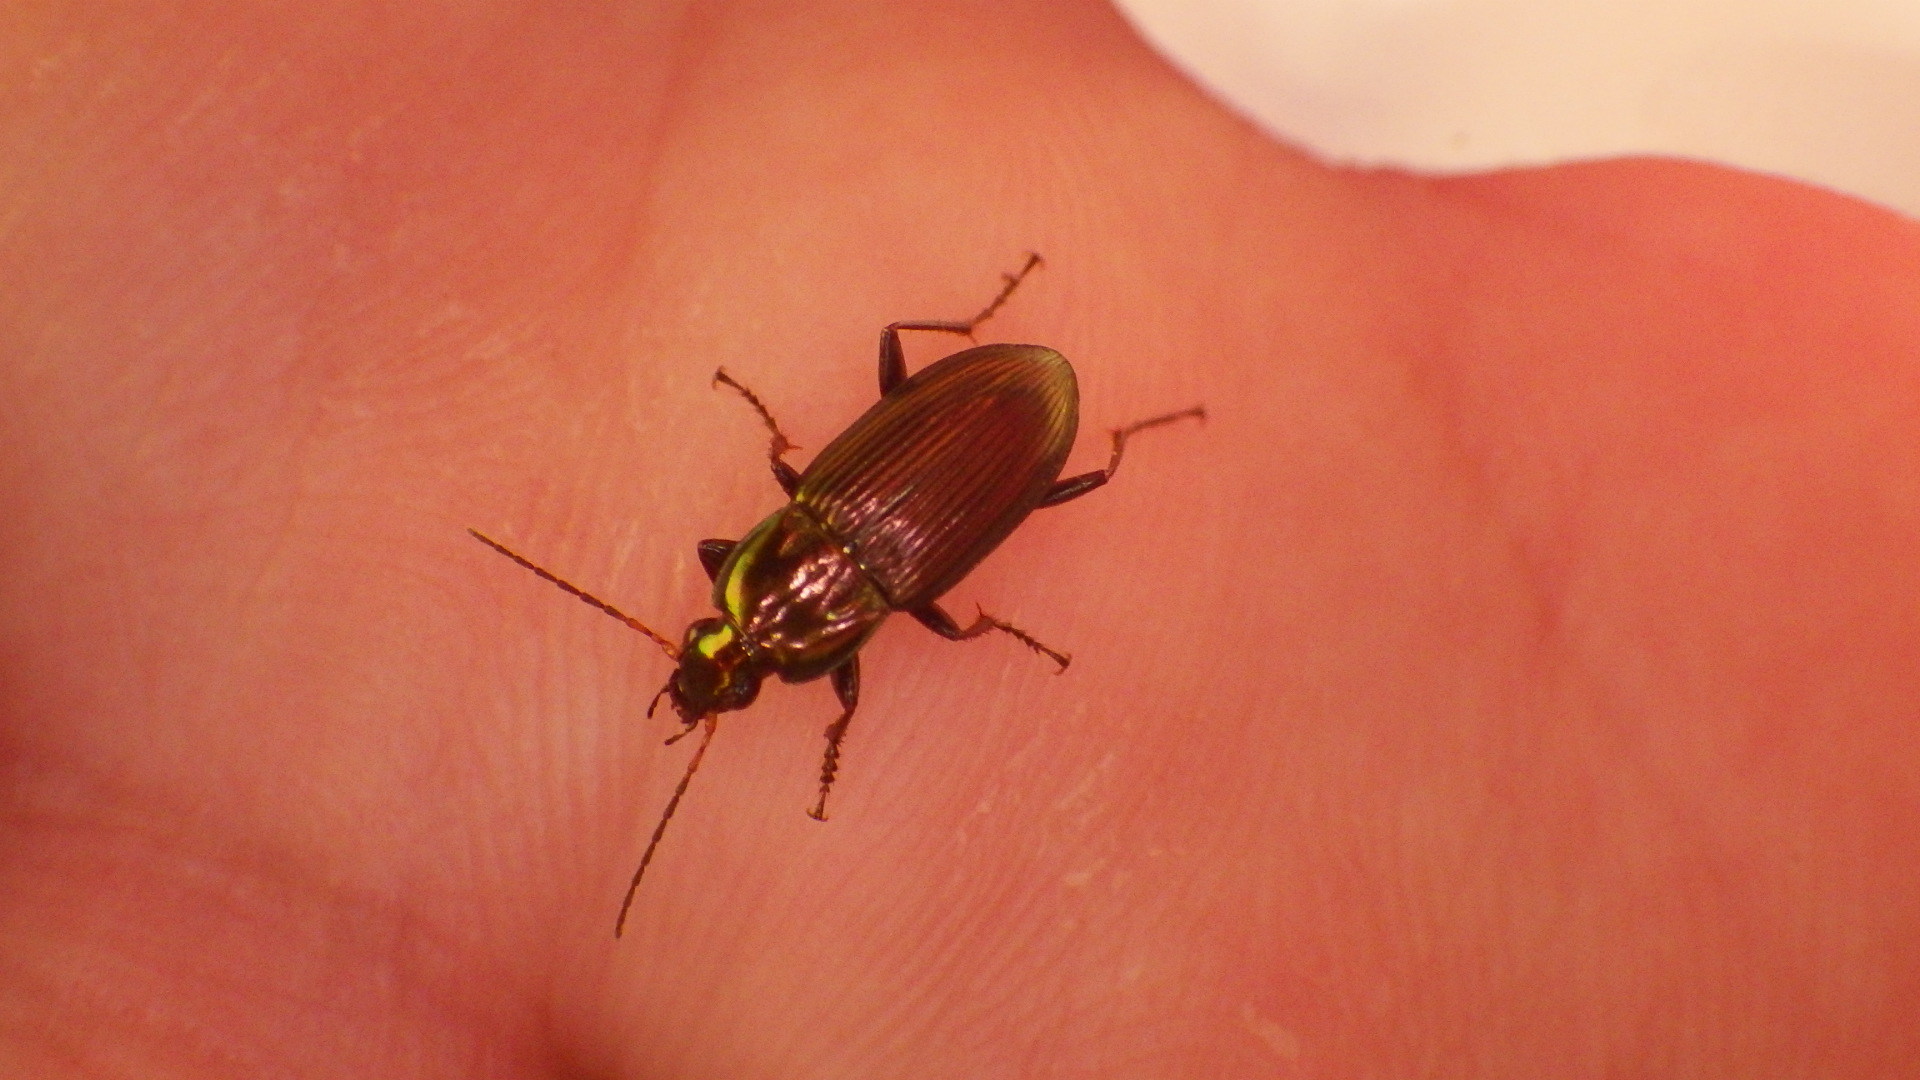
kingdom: Animalia
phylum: Arthropoda
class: Insecta
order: Coleoptera
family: Carabidae
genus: Poecilus
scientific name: Poecilus chalcites
